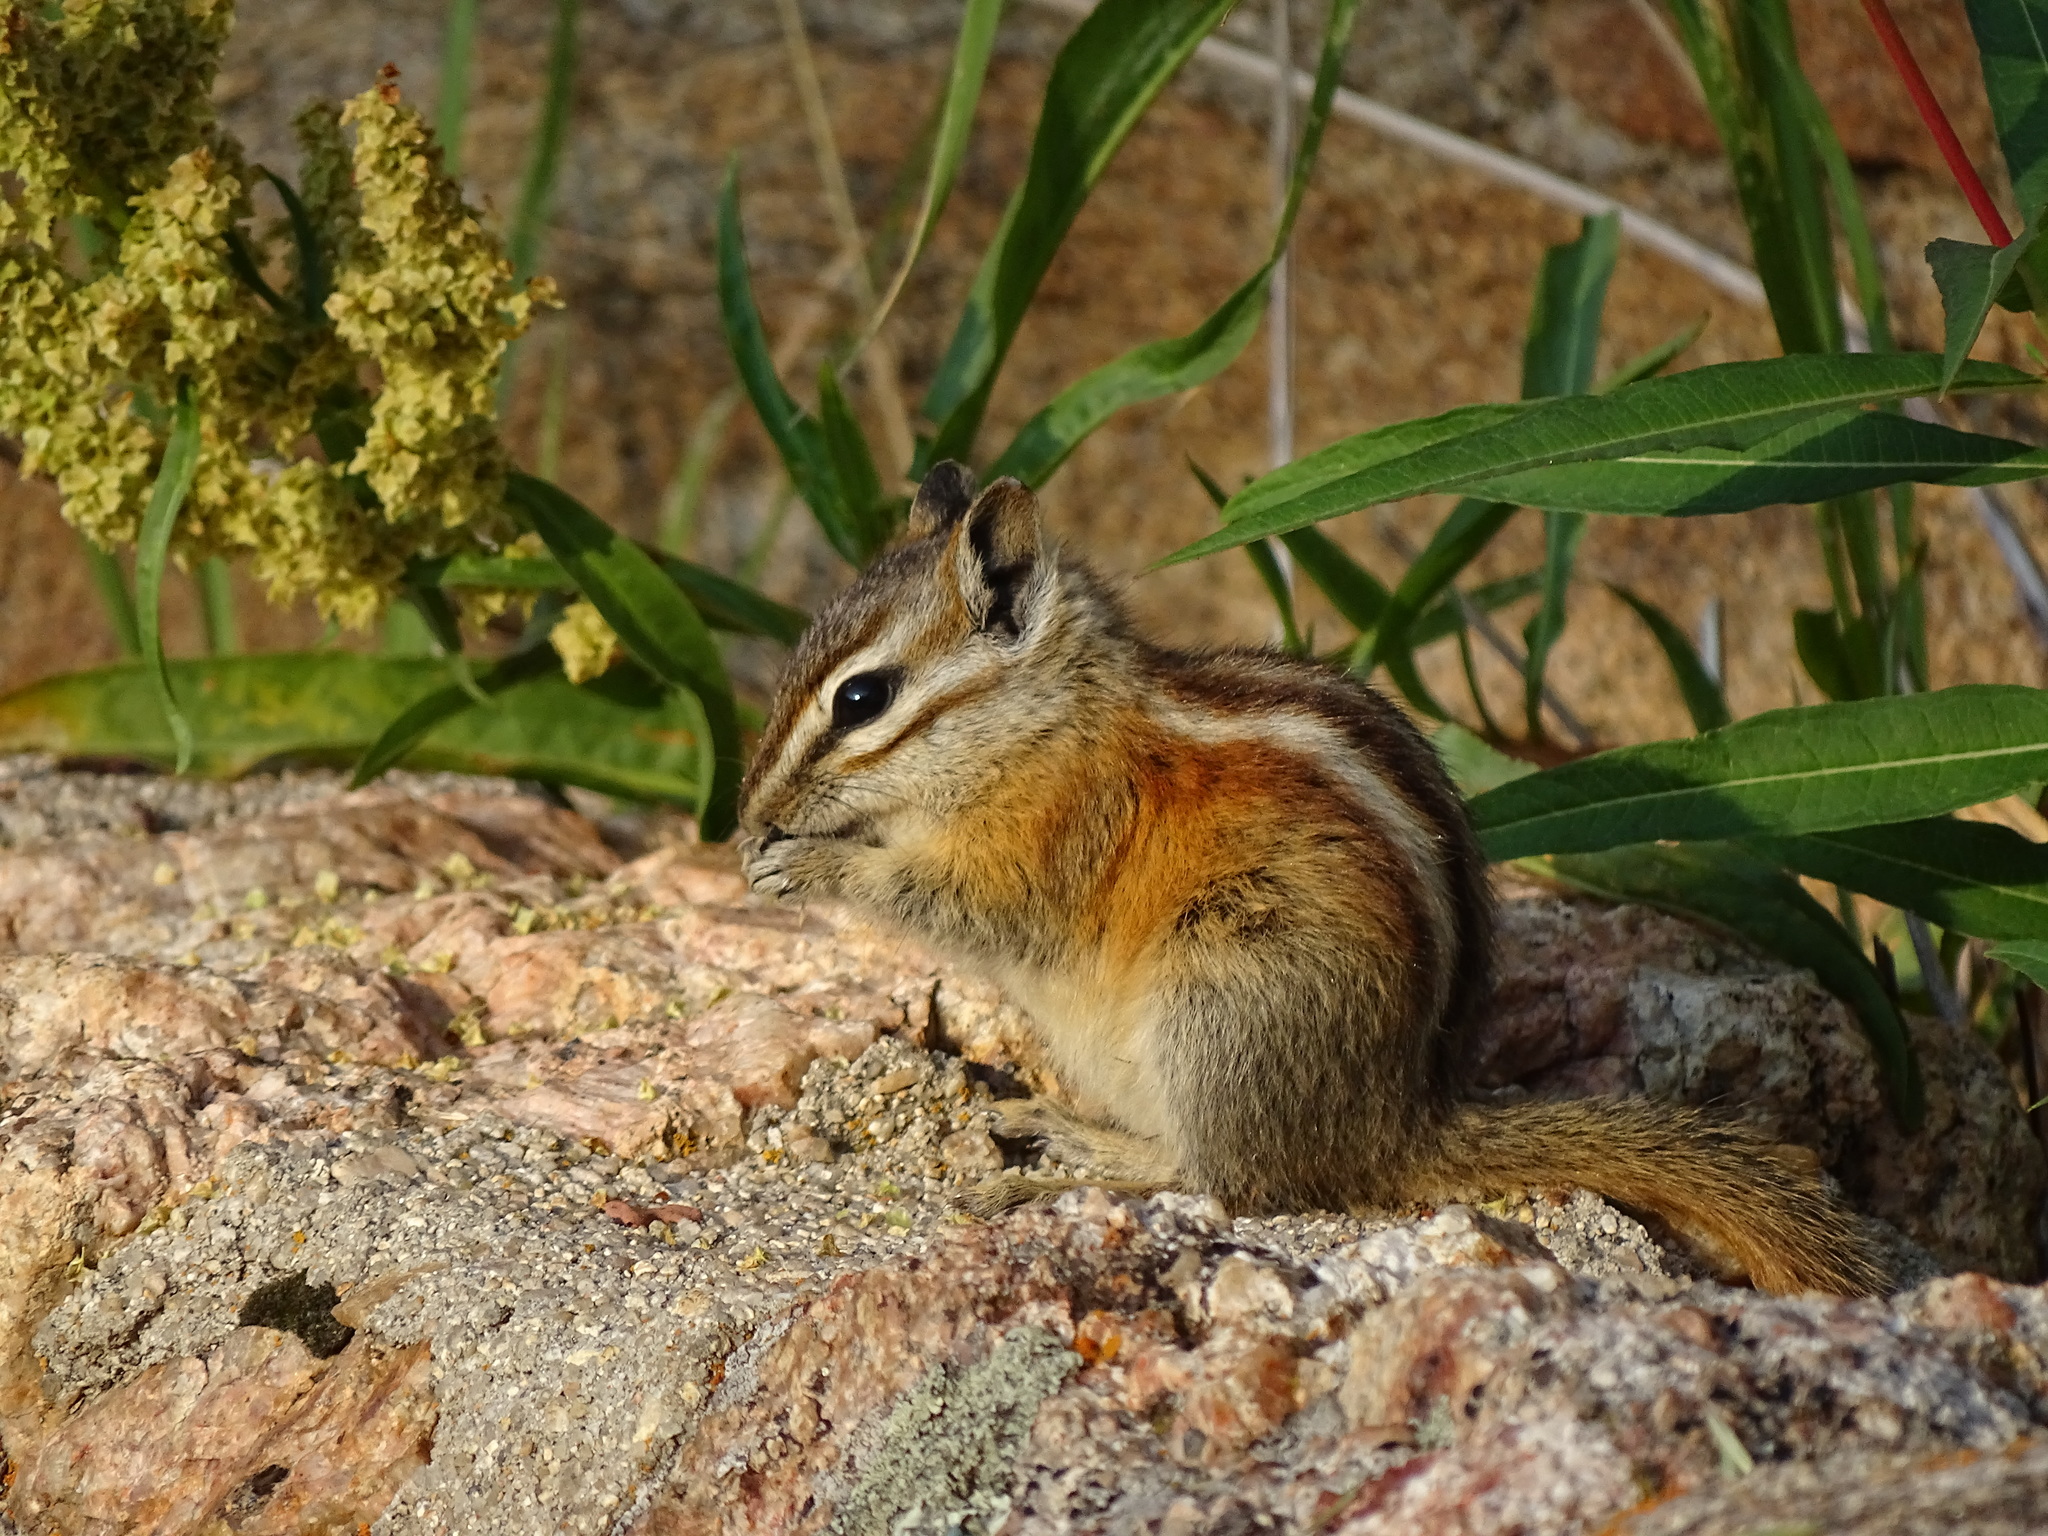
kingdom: Animalia
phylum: Chordata
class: Mammalia
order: Rodentia
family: Sciuridae
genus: Tamias
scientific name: Tamias minimus
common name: Least chipmunk
